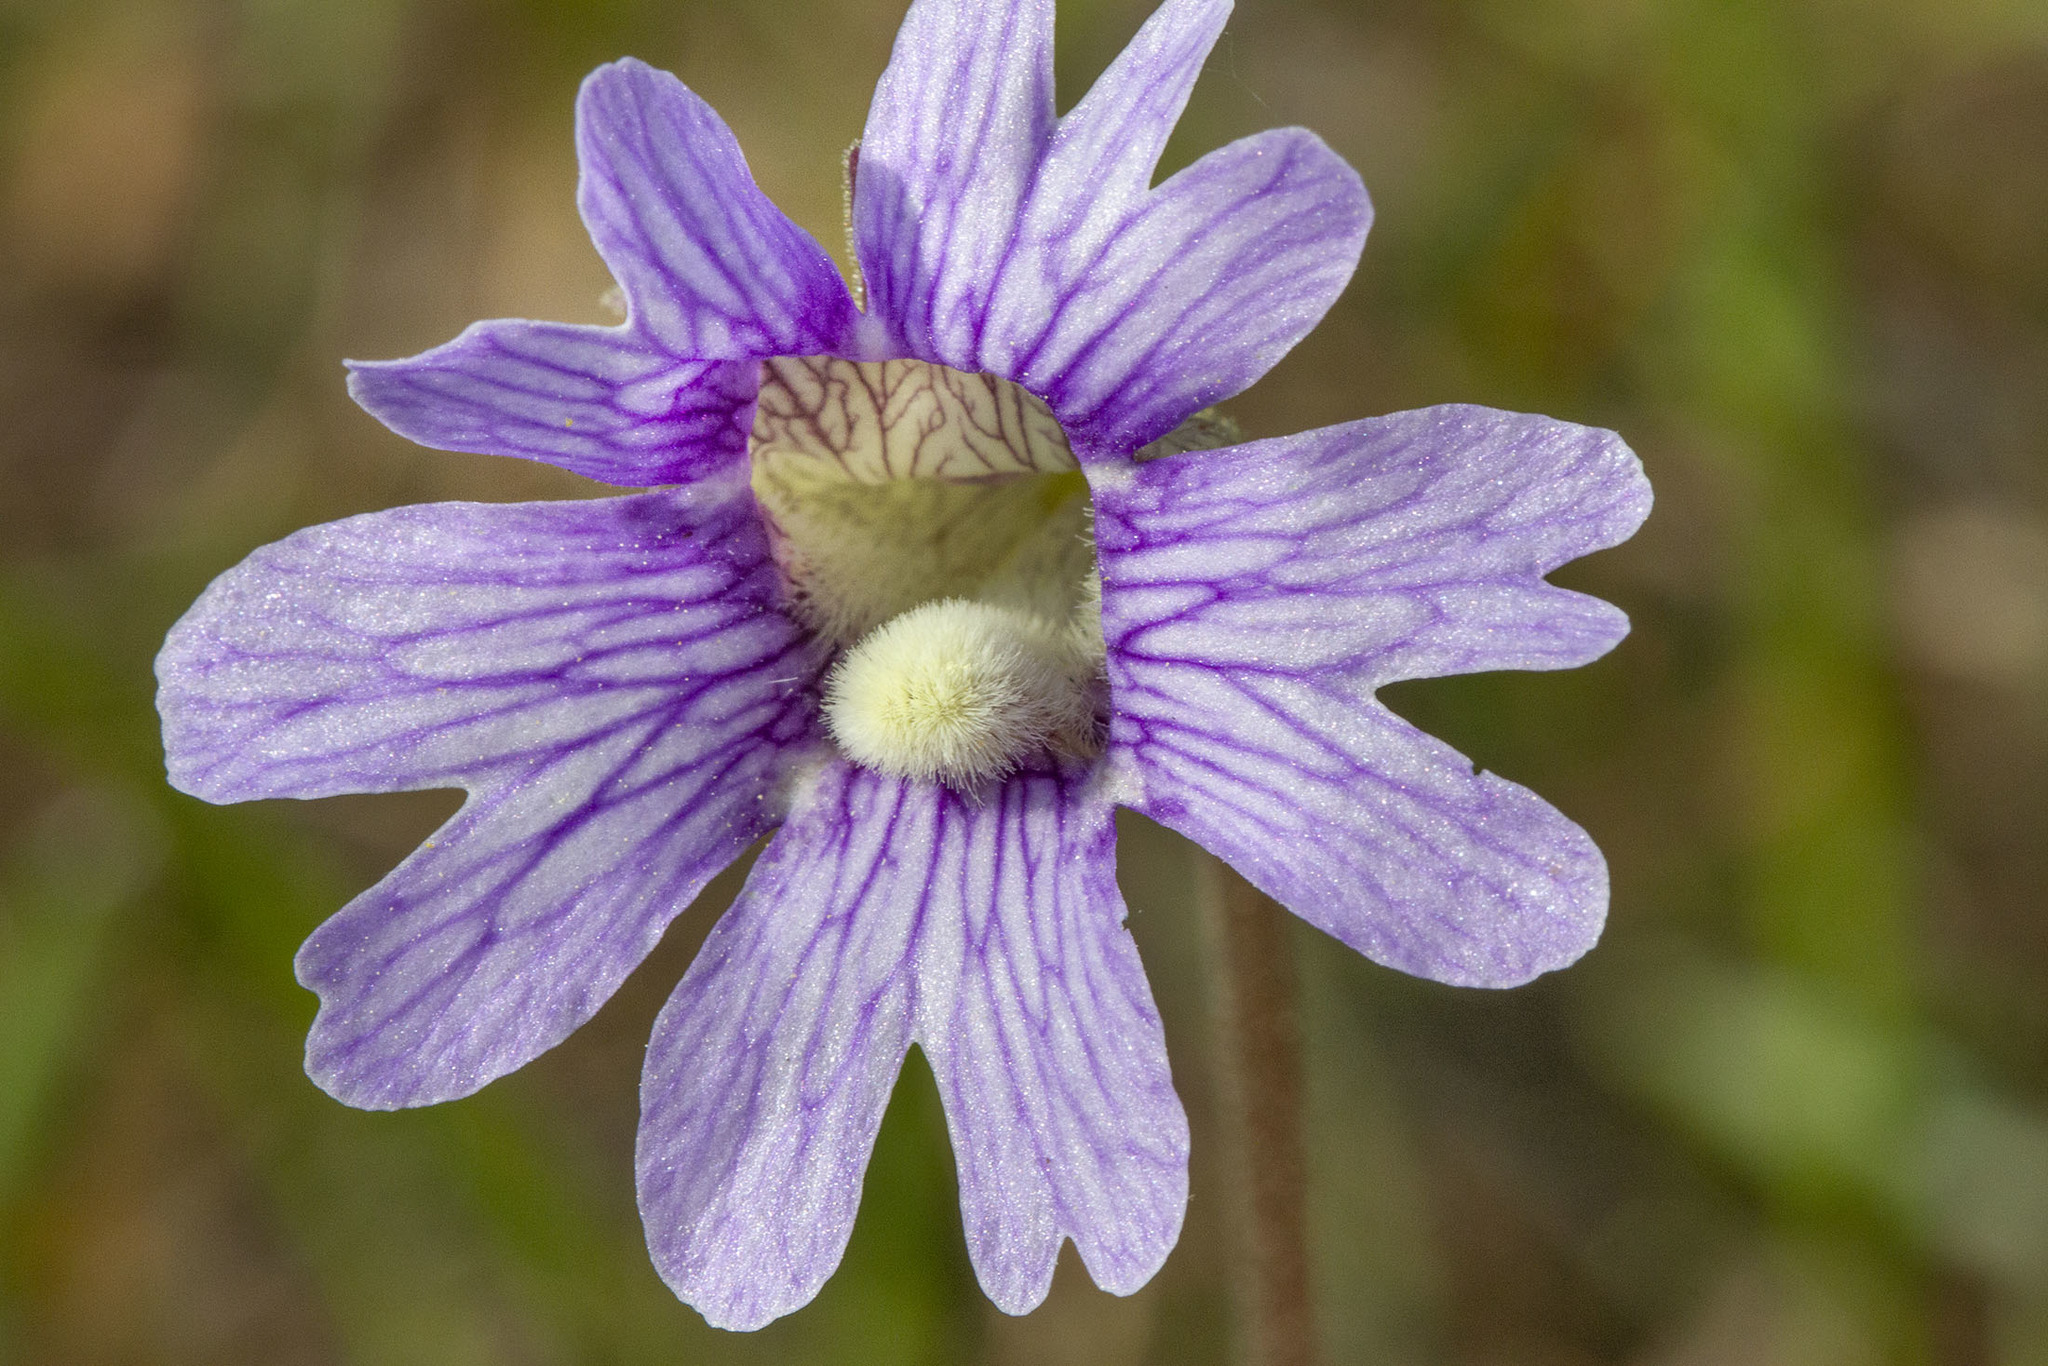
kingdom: Plantae
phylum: Tracheophyta
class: Magnoliopsida
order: Lamiales
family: Lentibulariaceae
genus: Pinguicula
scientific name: Pinguicula caerulea
